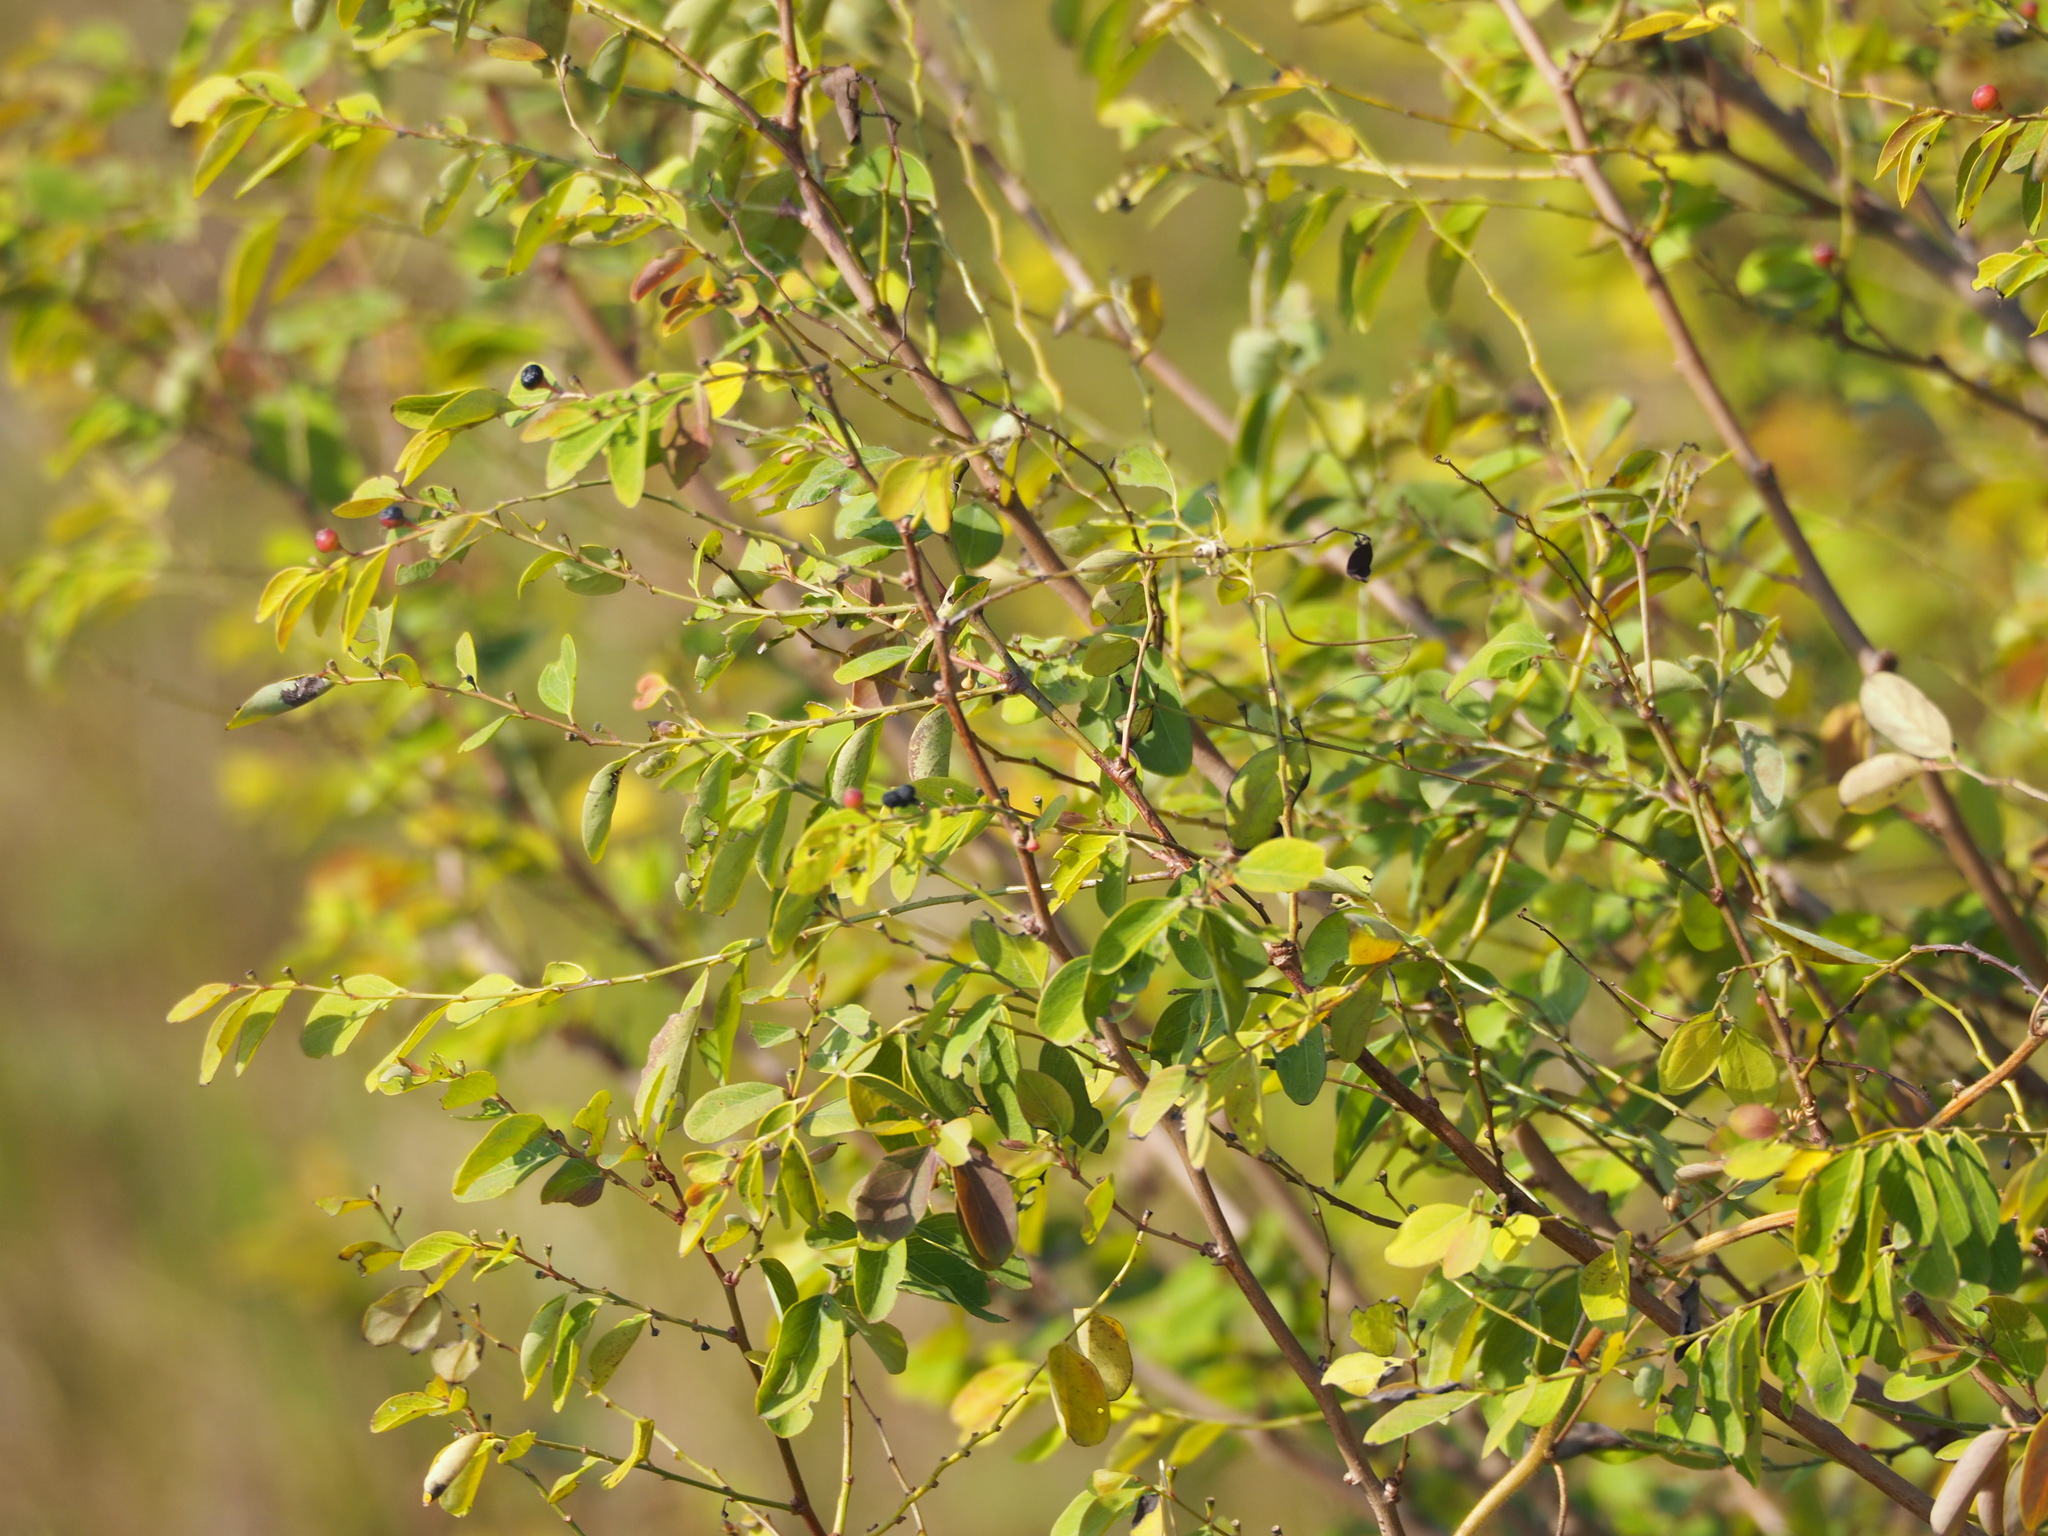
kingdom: Plantae
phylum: Tracheophyta
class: Magnoliopsida
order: Malpighiales
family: Phyllanthaceae
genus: Breynia
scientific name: Breynia vitis-idaea
